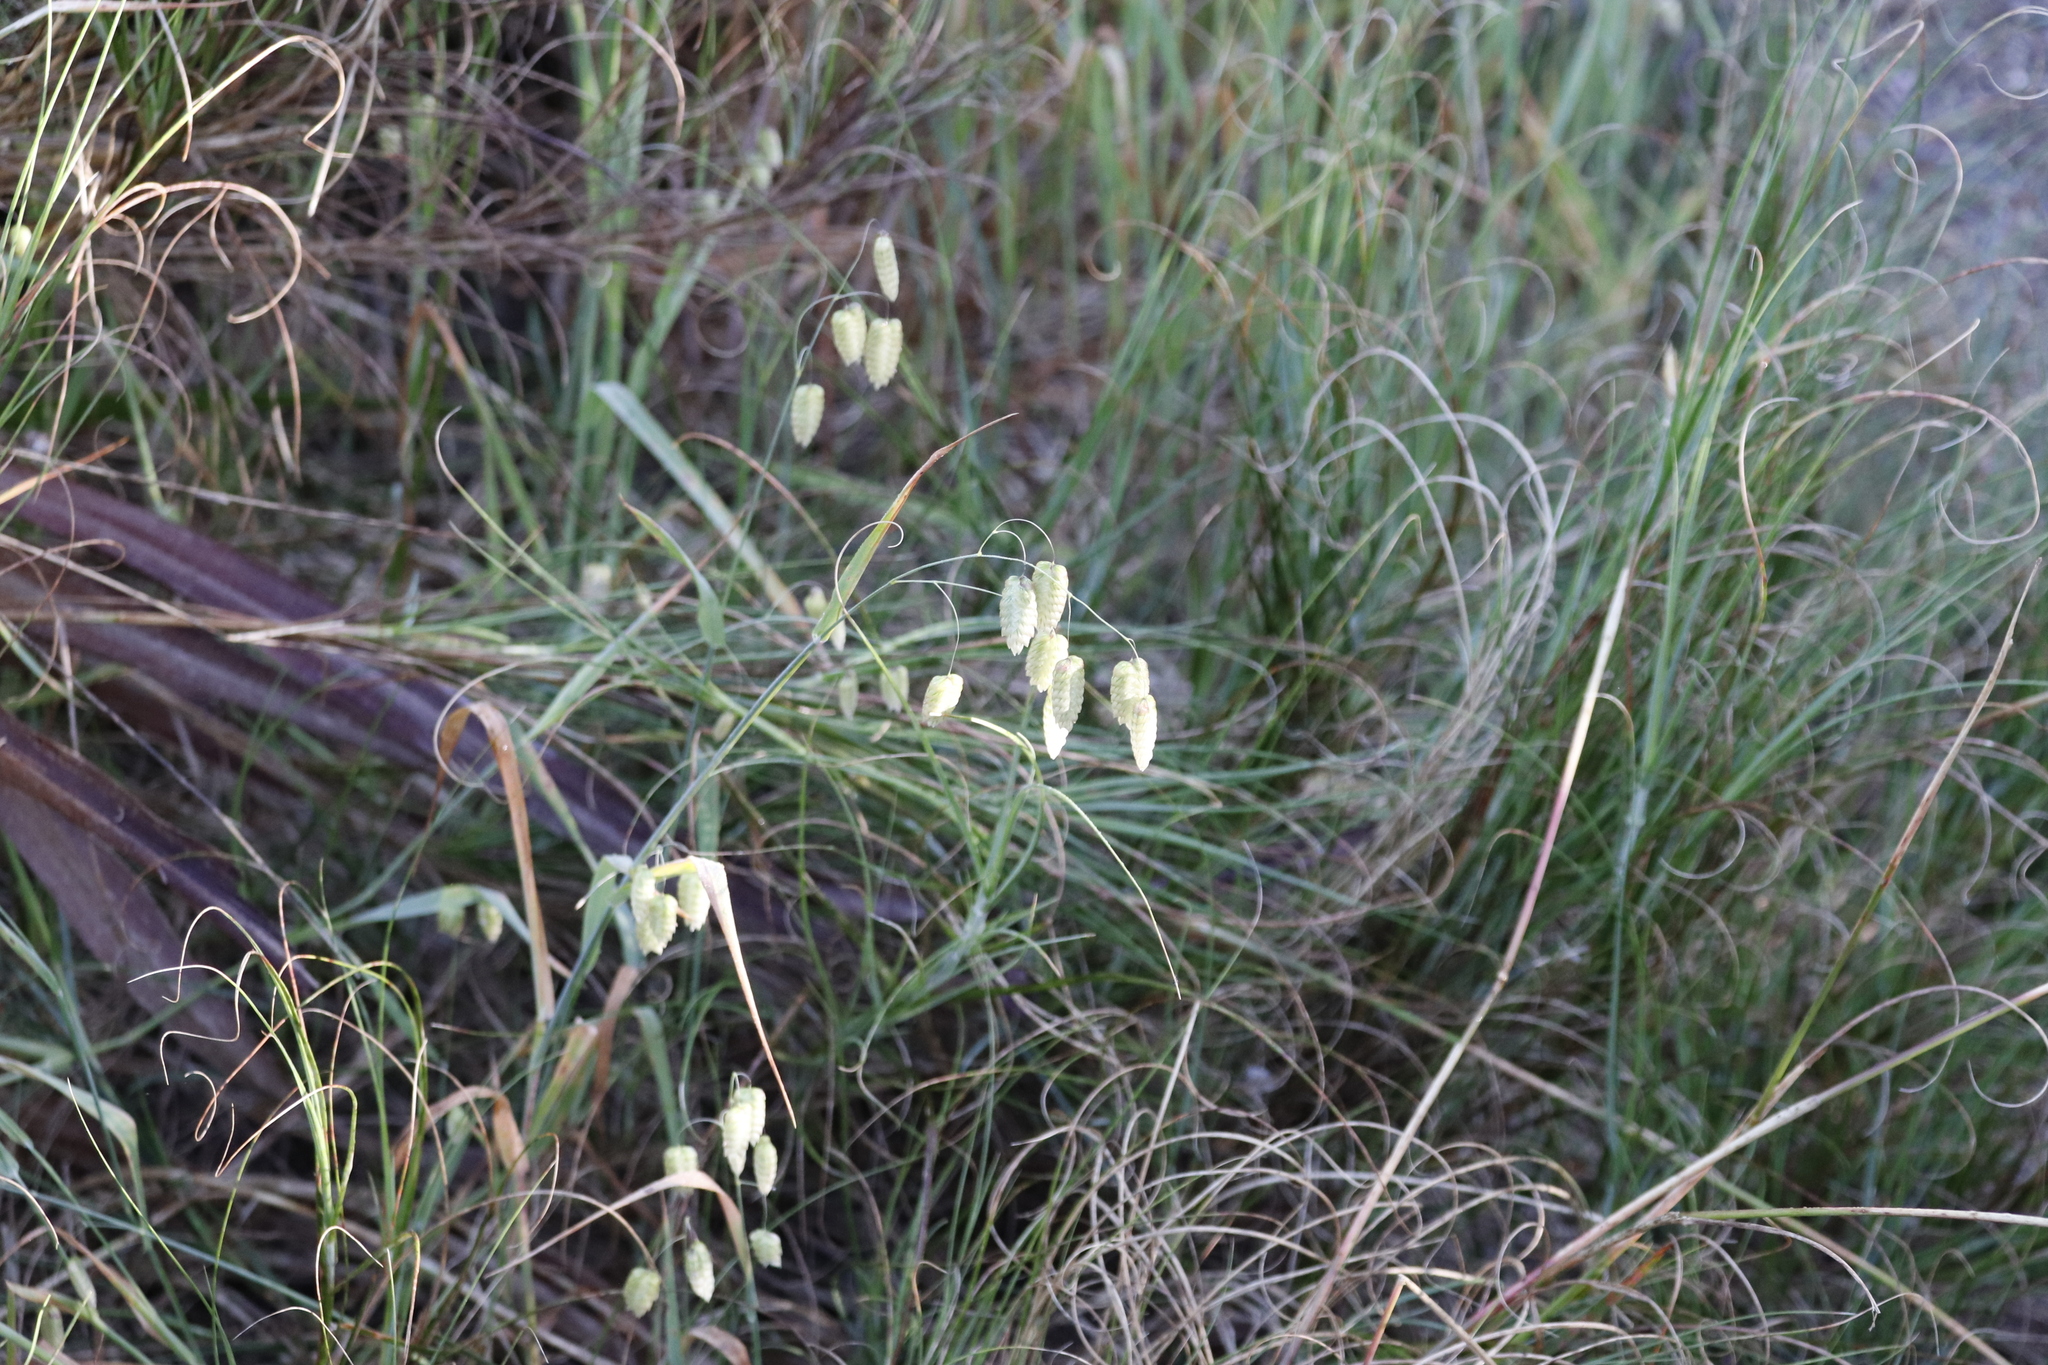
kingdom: Plantae
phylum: Tracheophyta
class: Liliopsida
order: Poales
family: Poaceae
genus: Briza
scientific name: Briza maxima
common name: Big quakinggrass
